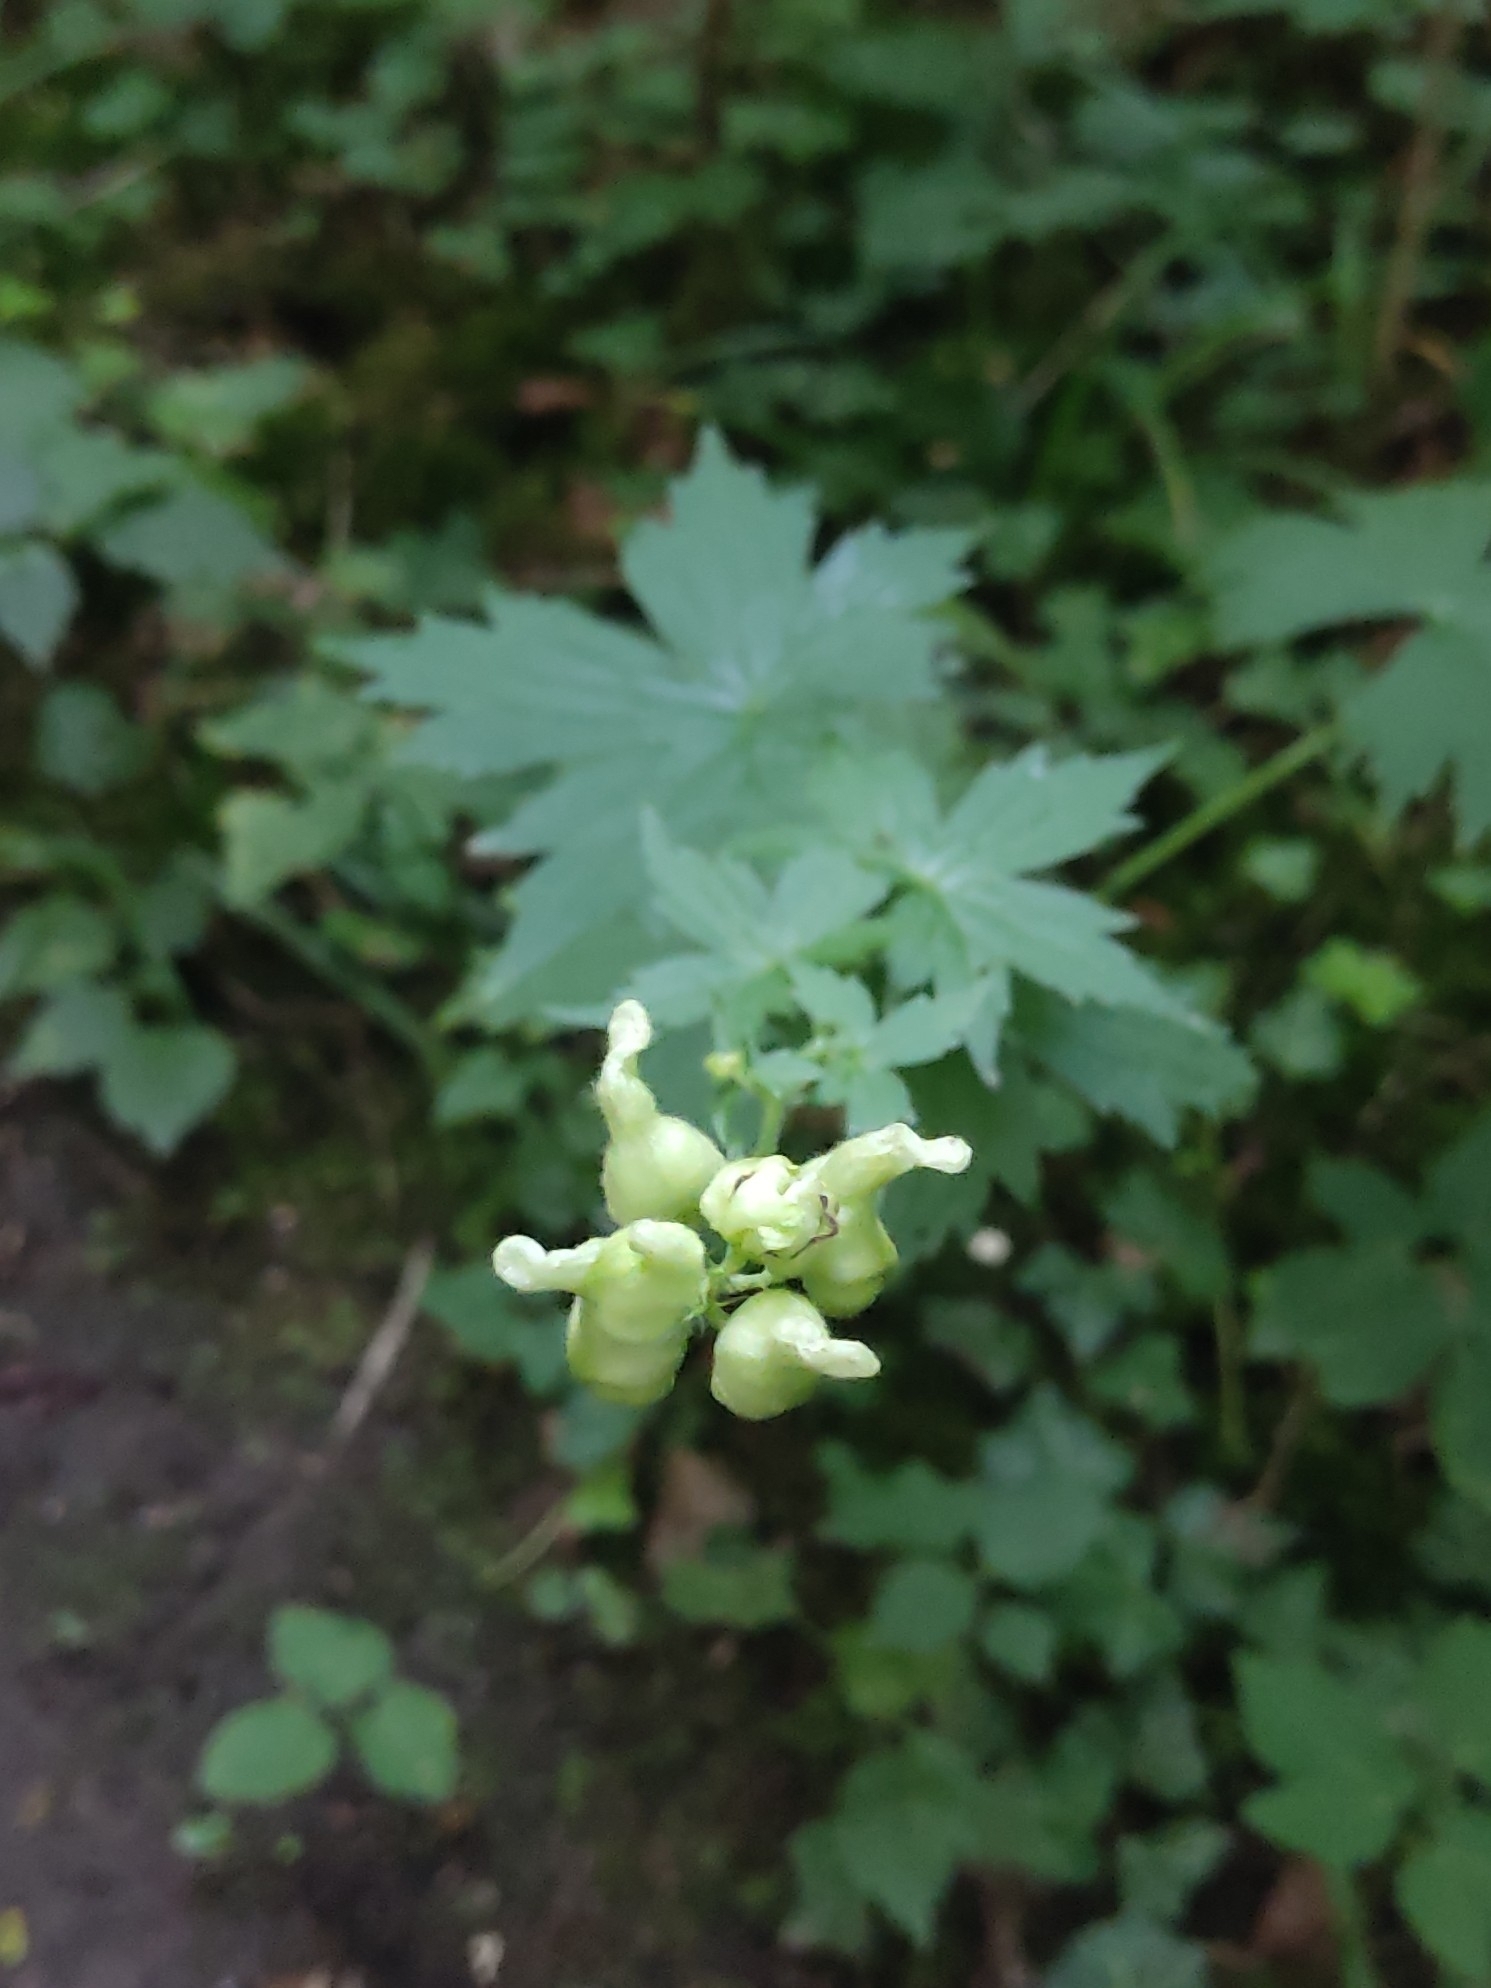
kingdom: Plantae
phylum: Tracheophyta
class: Magnoliopsida
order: Ranunculales
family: Ranunculaceae
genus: Aconitum
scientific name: Aconitum lycoctonum
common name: Wolf's-bane
